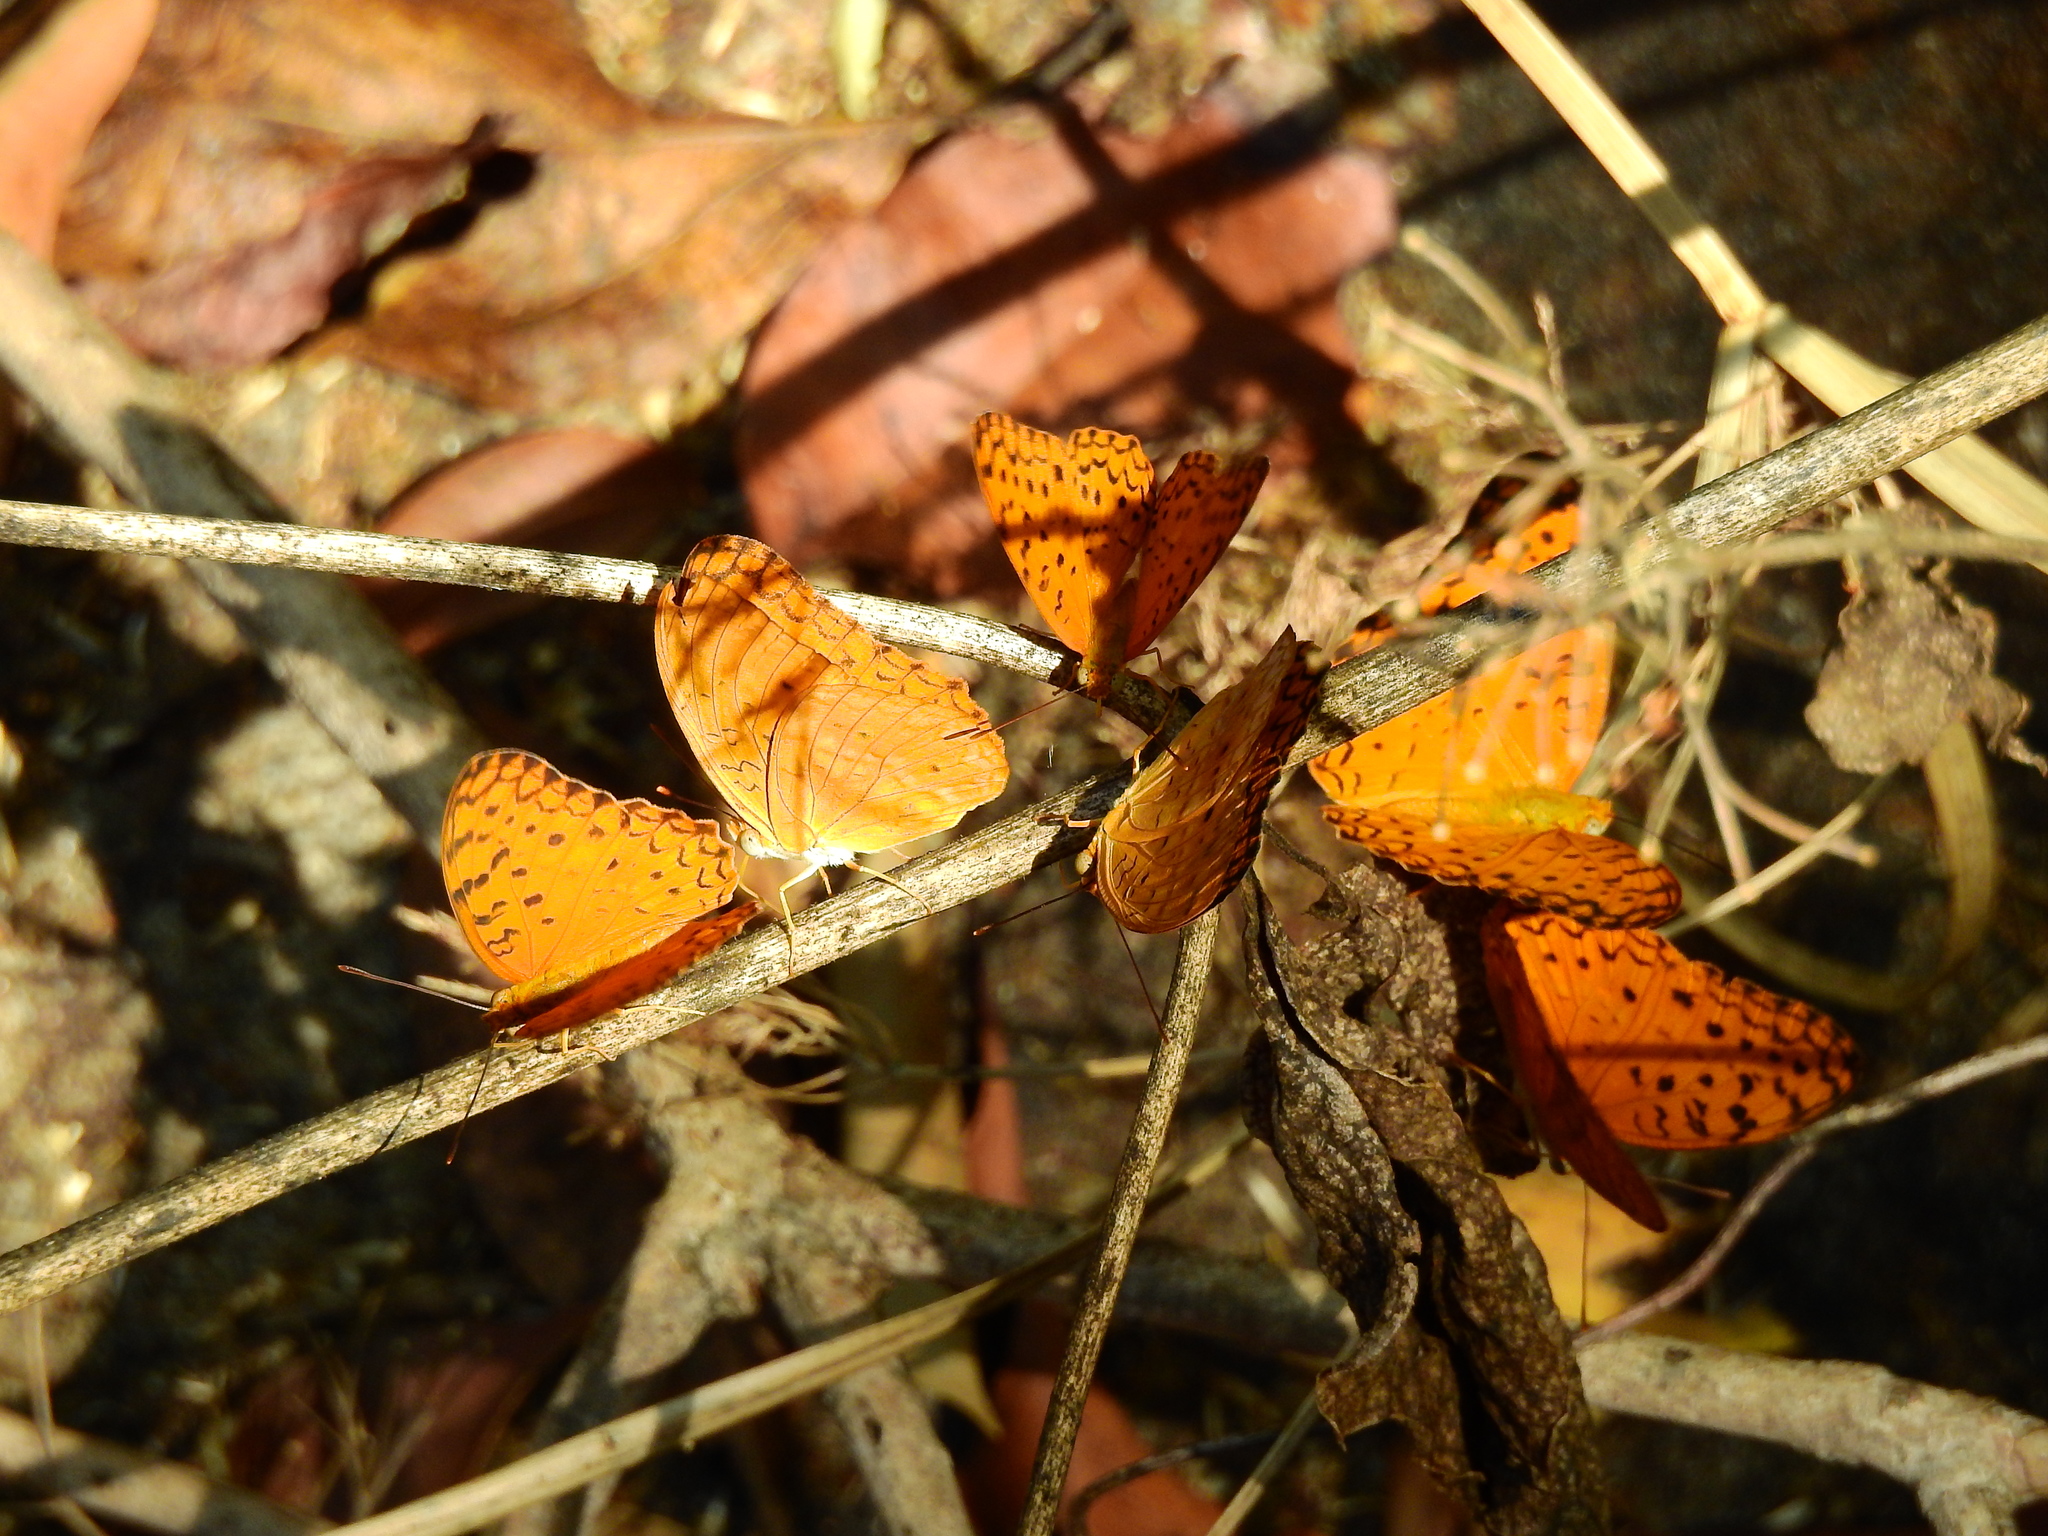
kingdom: Animalia
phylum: Arthropoda
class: Insecta
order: Lepidoptera
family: Nymphalidae
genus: Phalanta
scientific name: Phalanta phalantha
